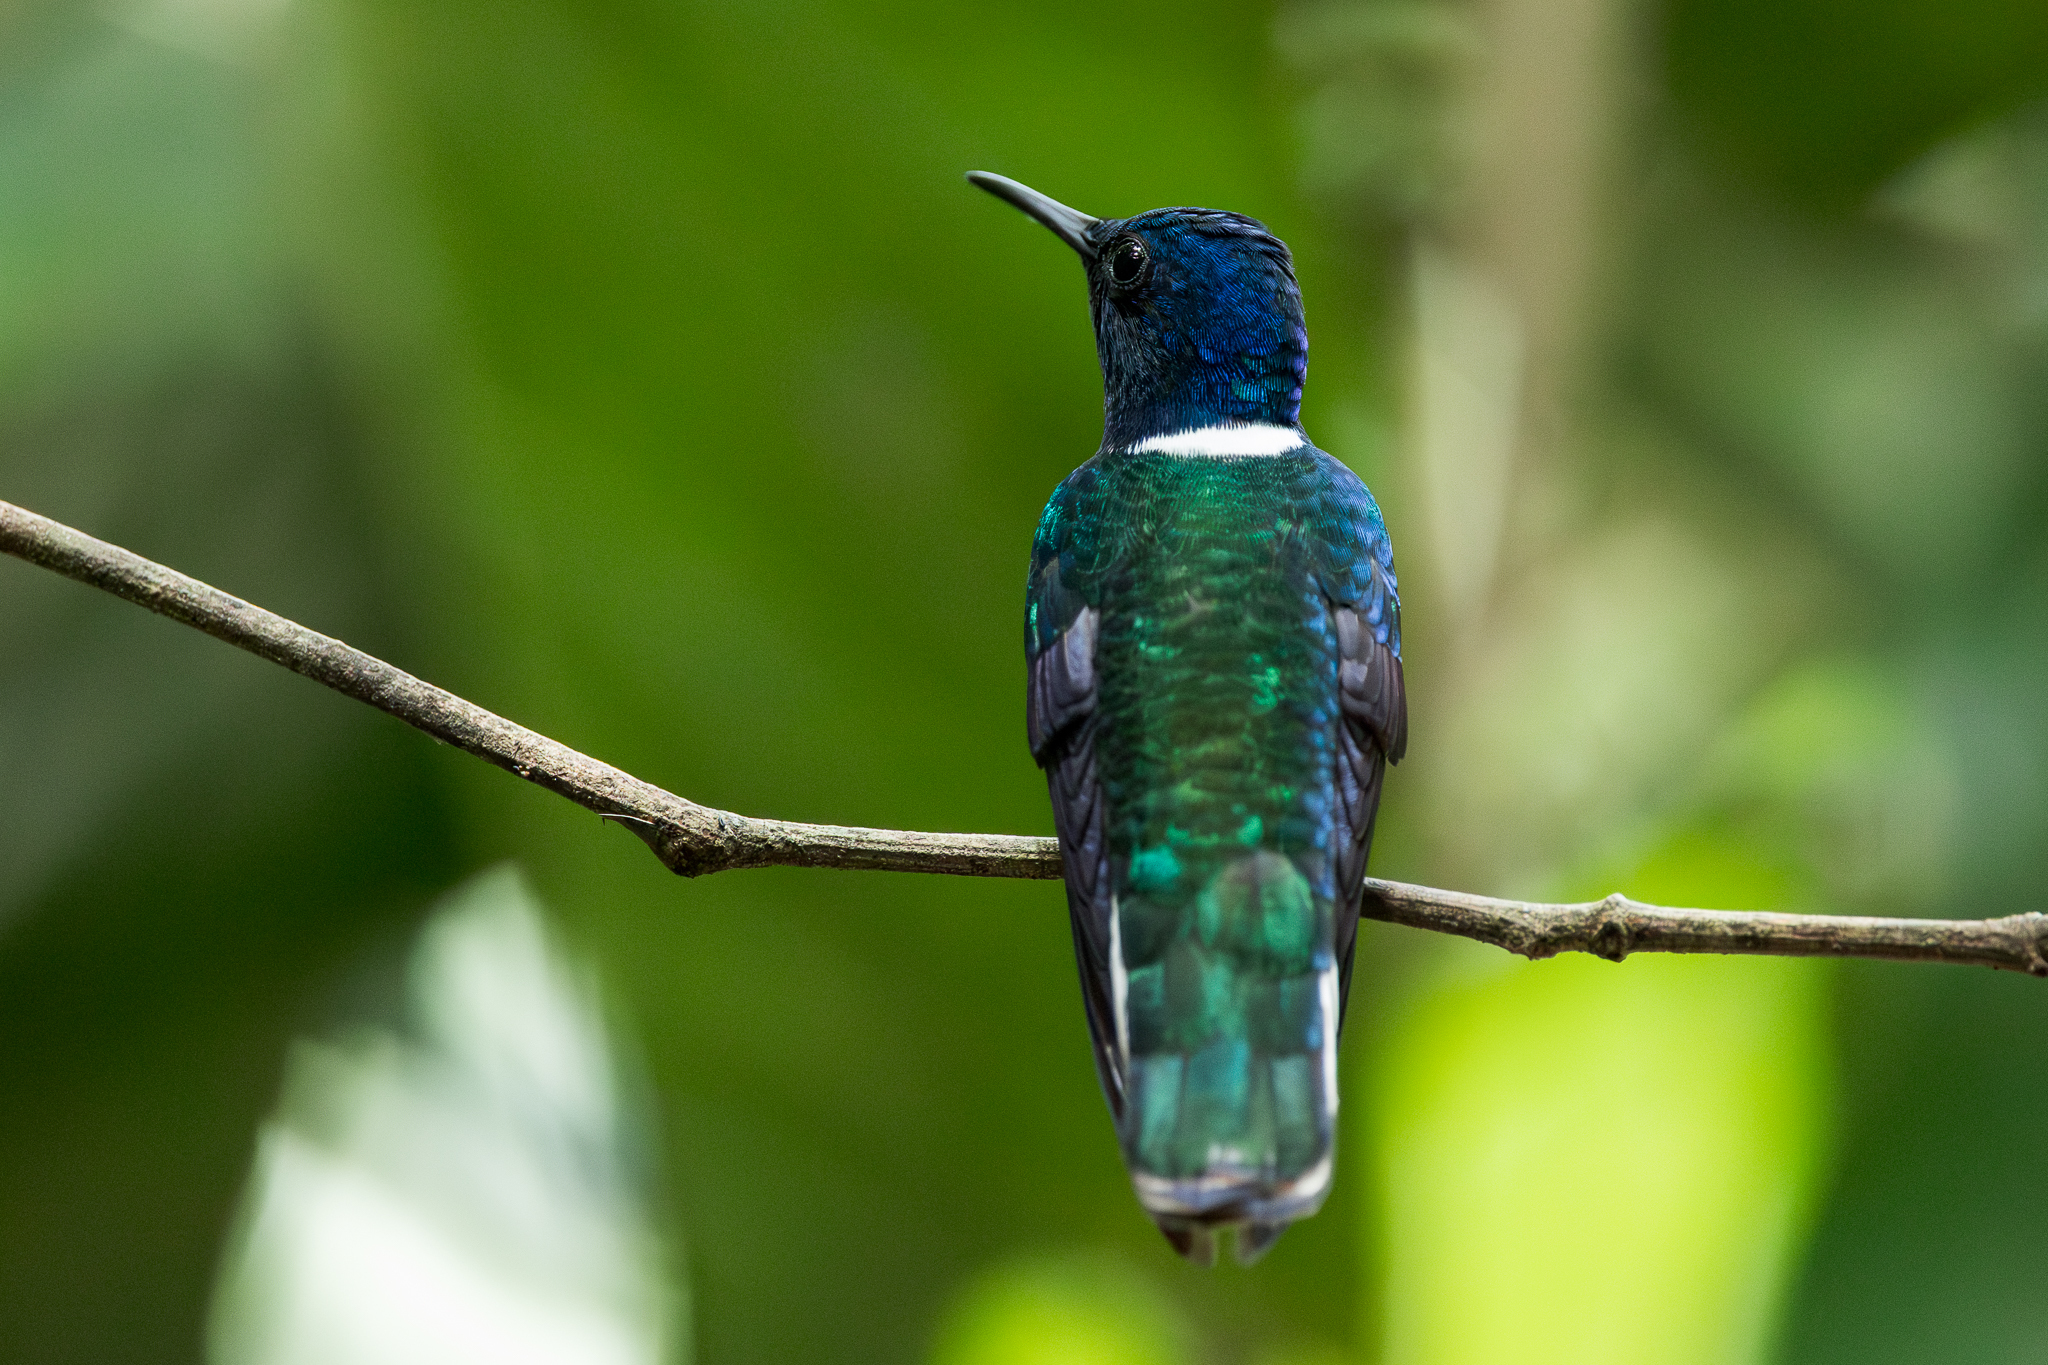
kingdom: Animalia
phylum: Chordata
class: Aves
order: Apodiformes
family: Trochilidae
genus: Florisuga
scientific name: Florisuga mellivora
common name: White-necked jacobin
